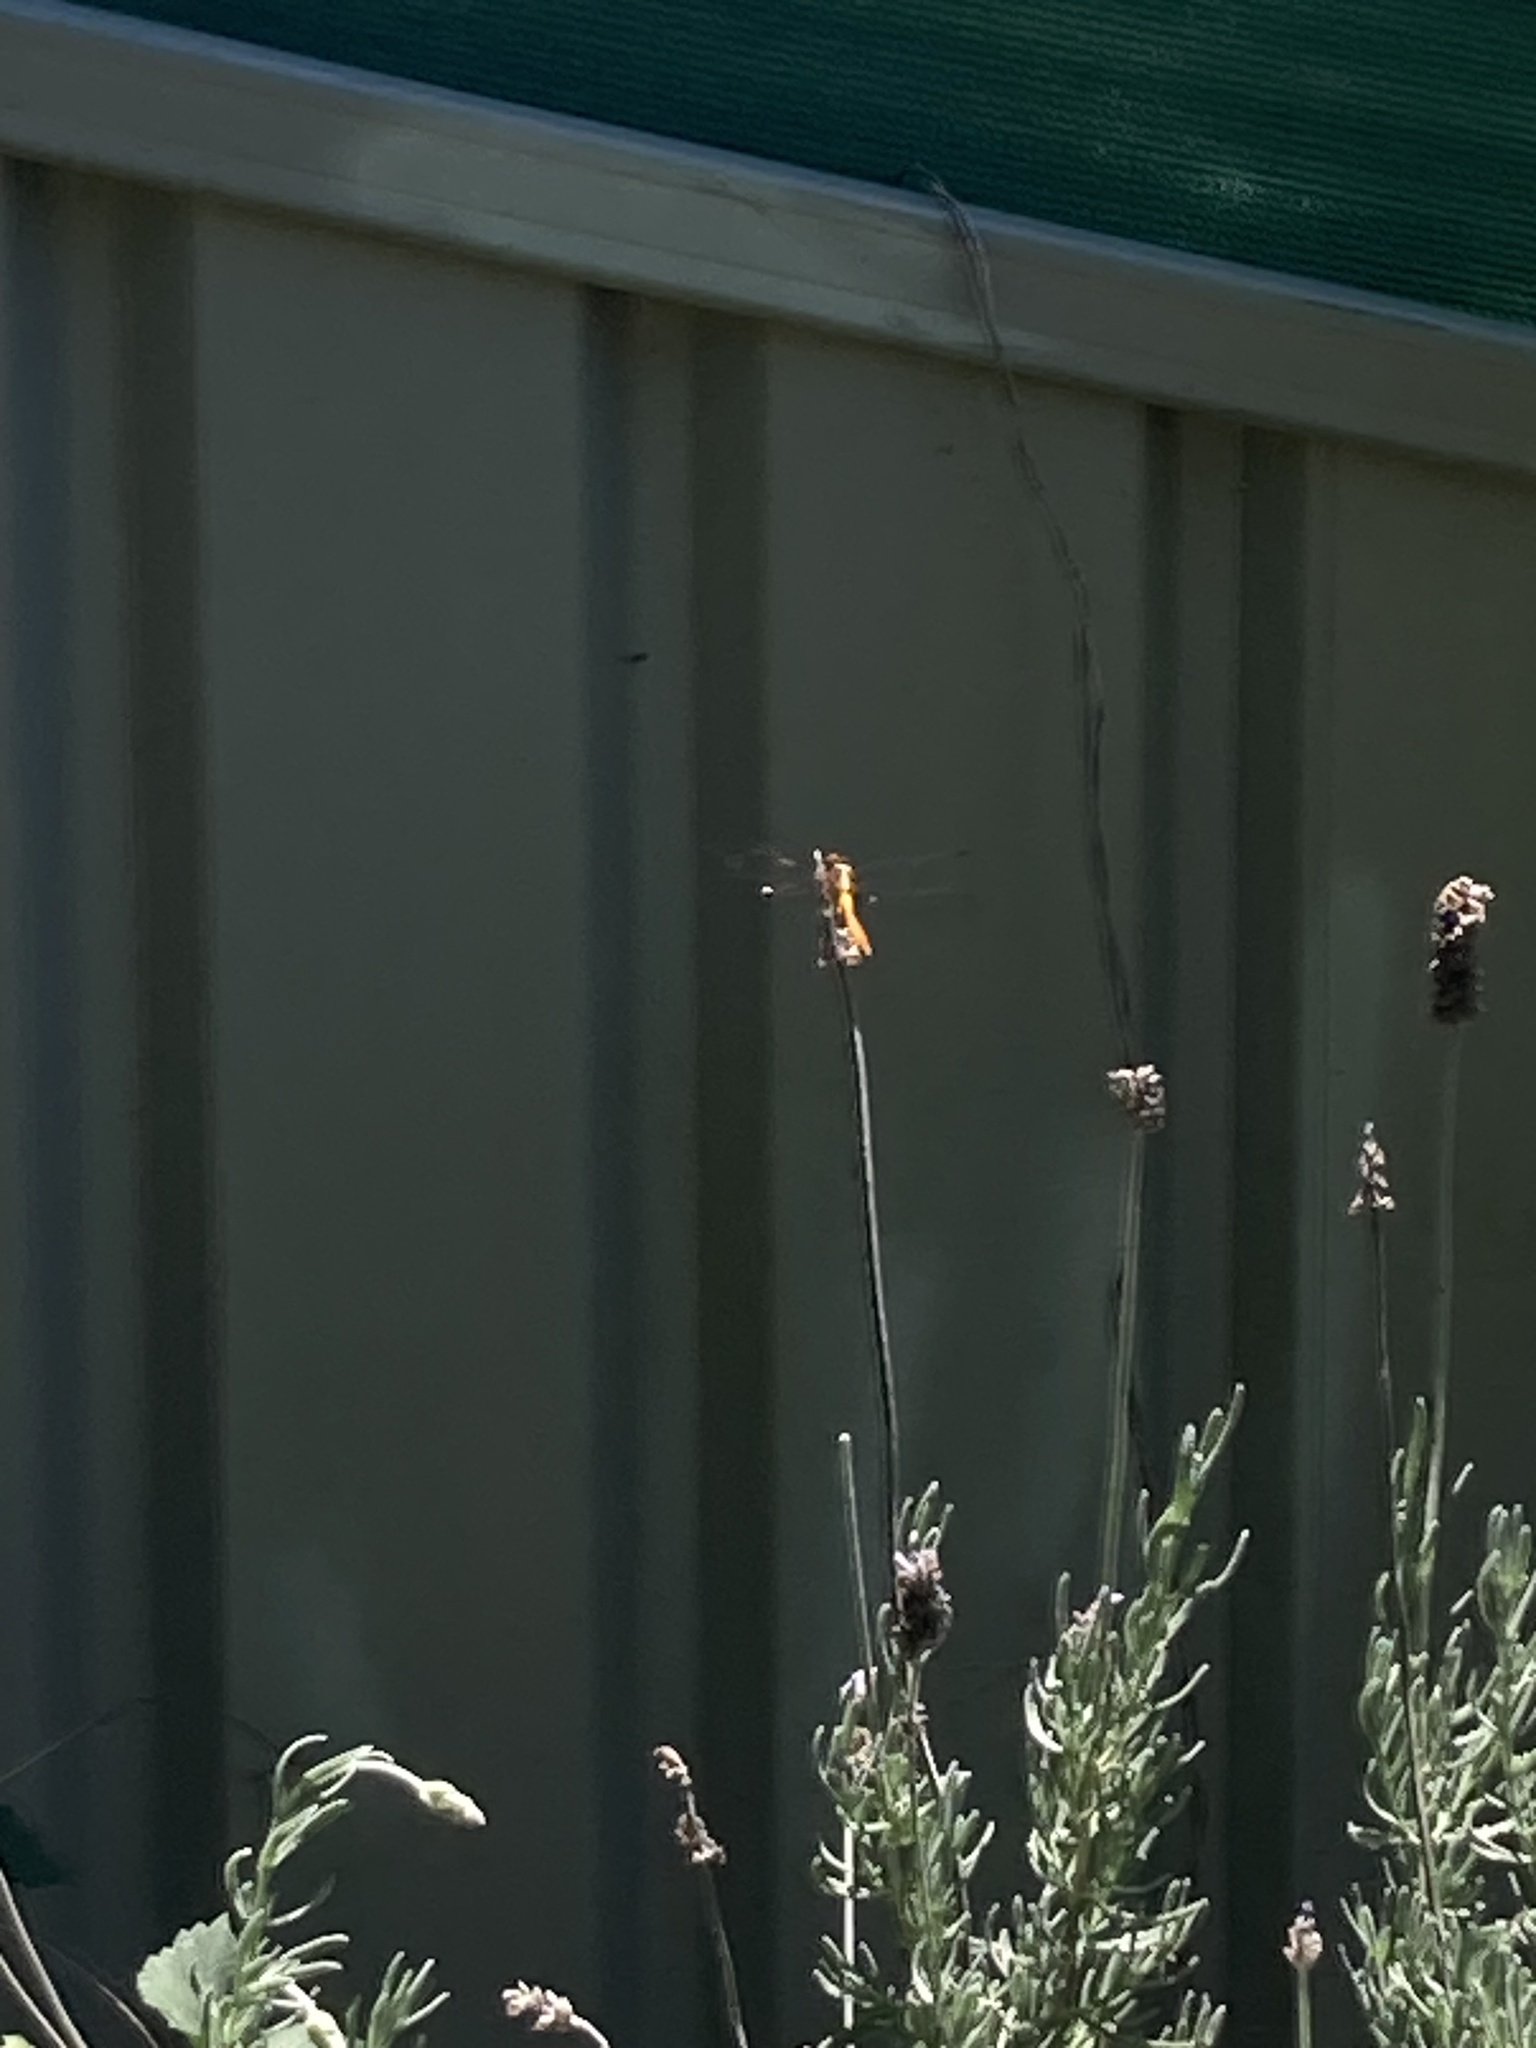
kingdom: Animalia
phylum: Arthropoda
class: Insecta
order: Odonata
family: Libellulidae
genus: Orthetrum
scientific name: Orthetrum villosovittatum
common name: Firery skimmer
